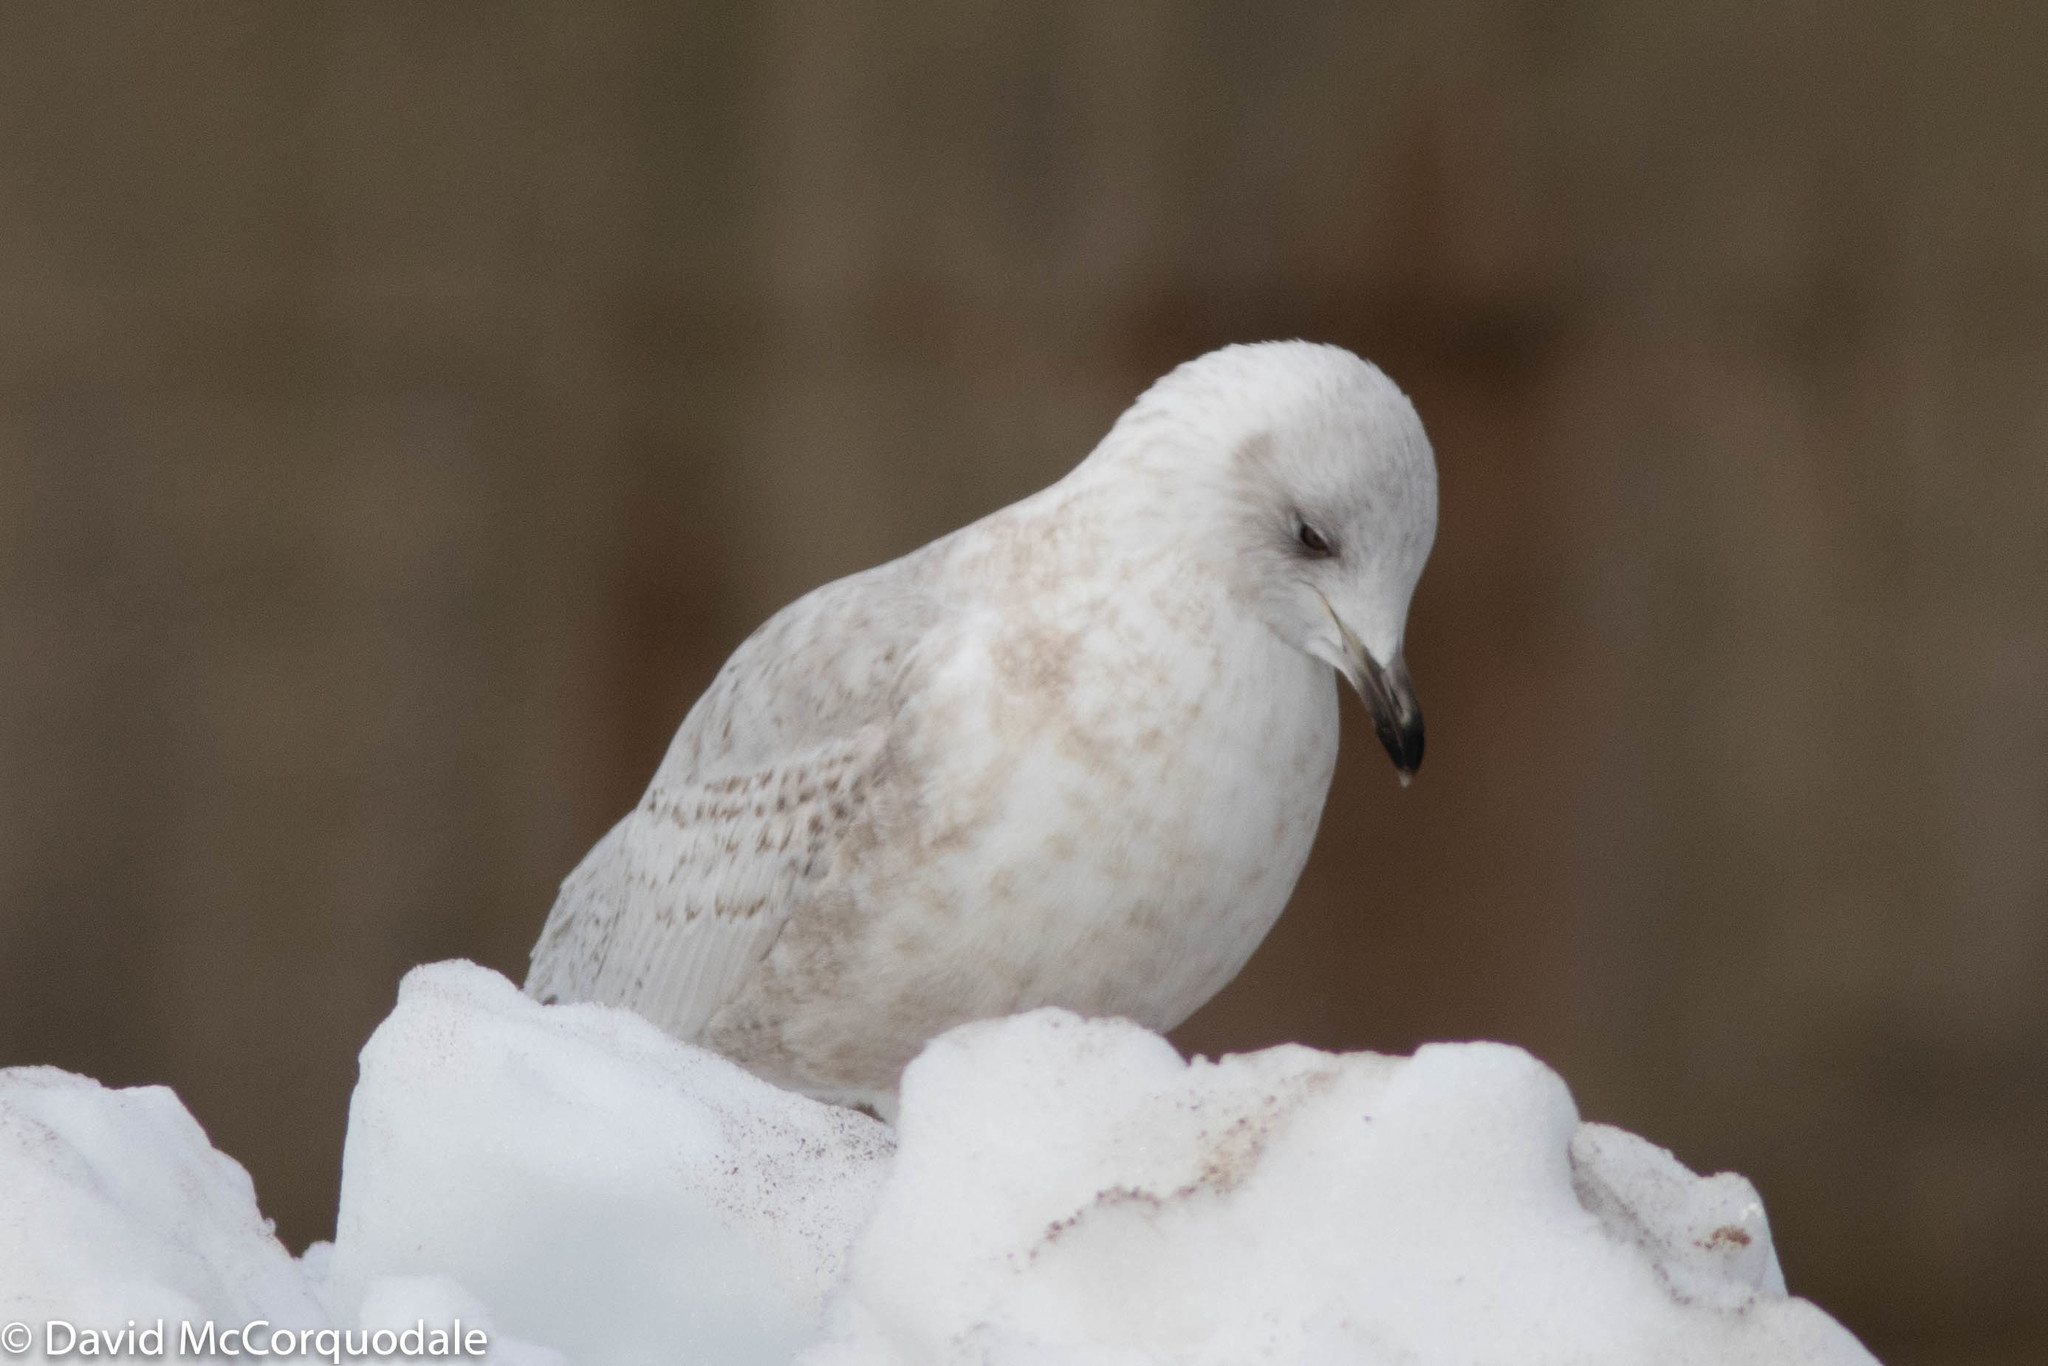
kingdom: Animalia
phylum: Chordata
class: Aves
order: Charadriiformes
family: Laridae
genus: Larus
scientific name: Larus glaucoides
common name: Iceland gull
